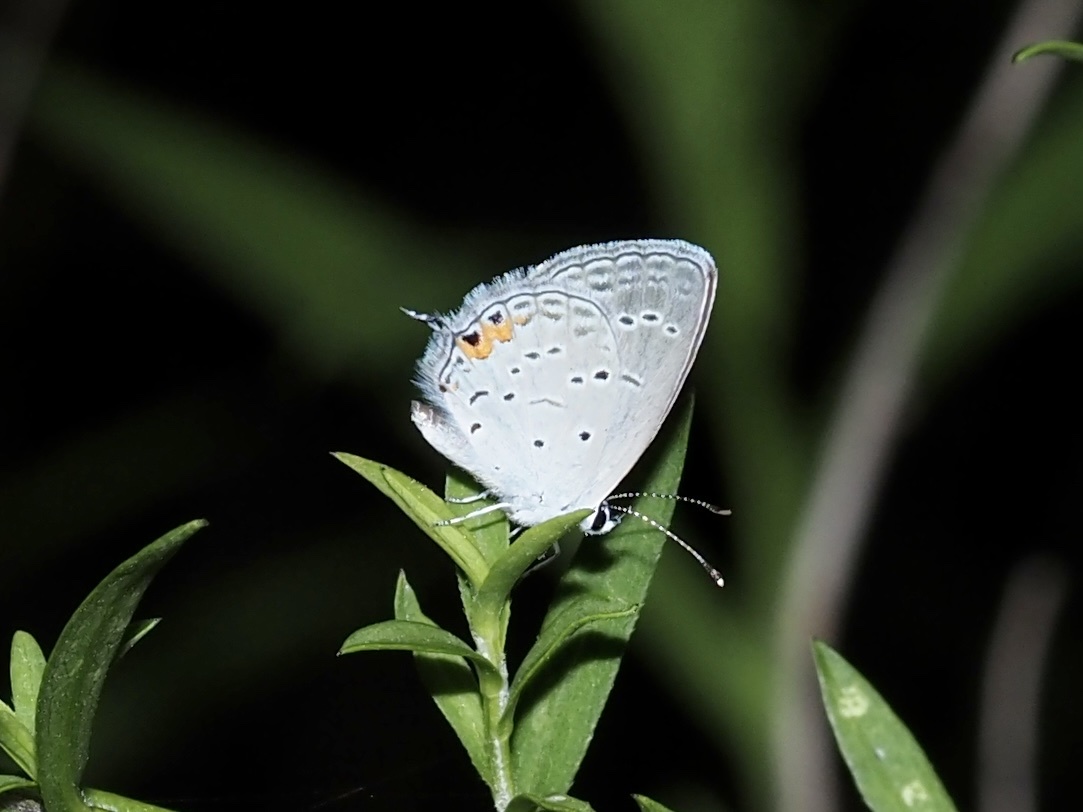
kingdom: Animalia
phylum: Arthropoda
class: Insecta
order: Lepidoptera
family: Lycaenidae
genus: Elkalyce
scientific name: Elkalyce comyntas
